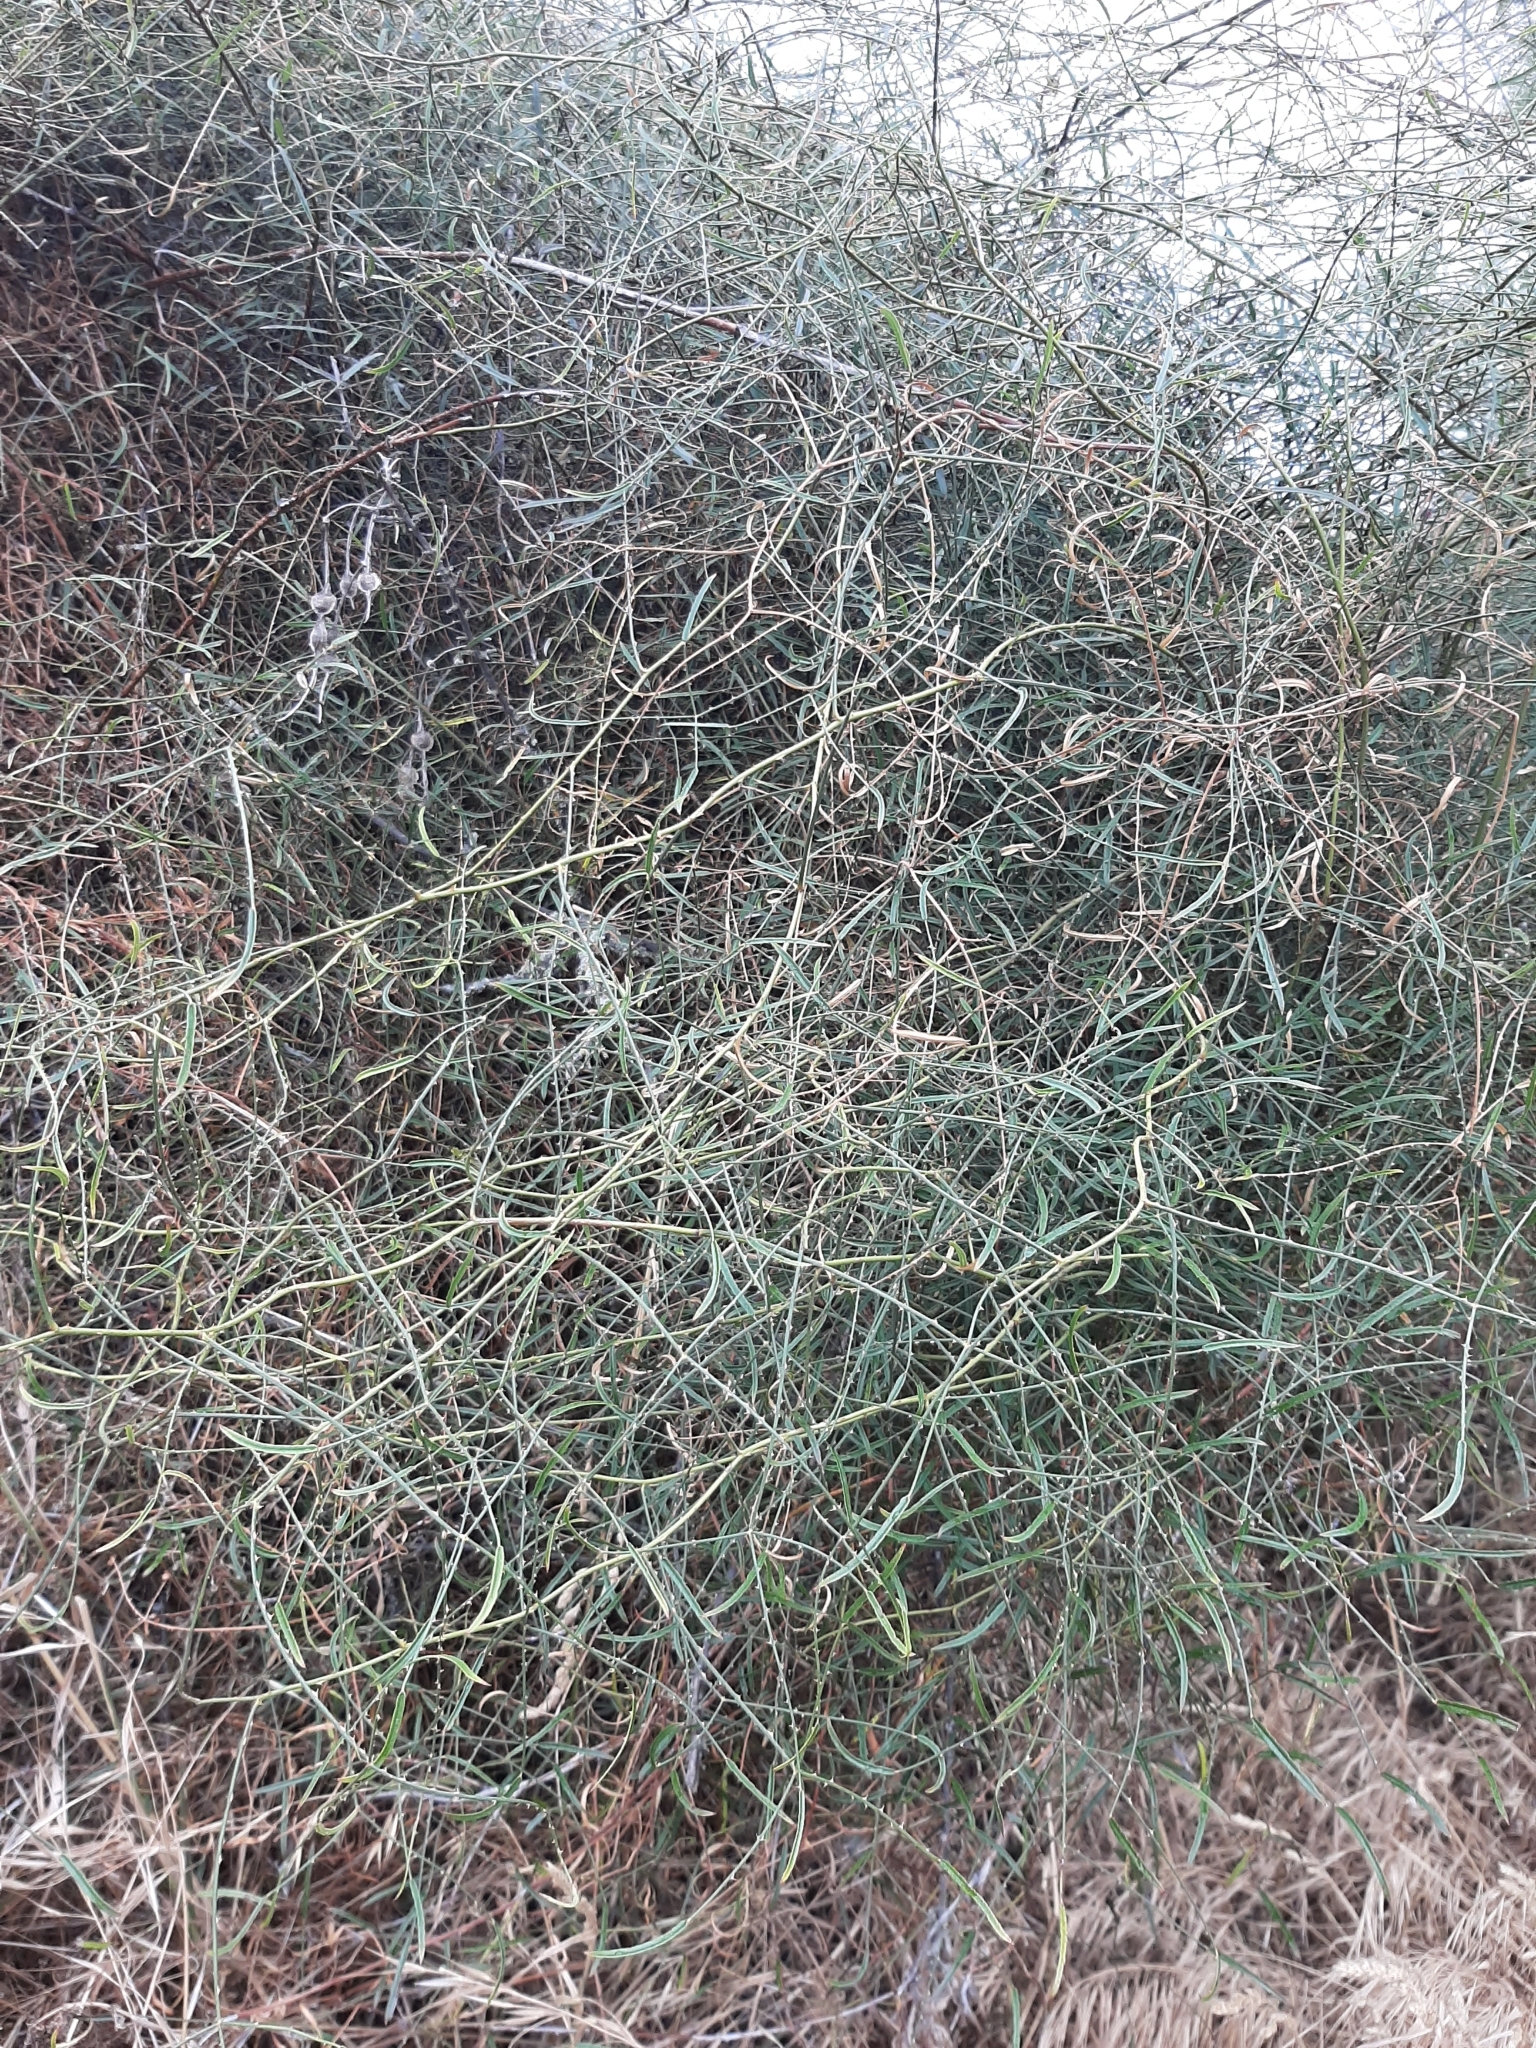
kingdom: Plantae
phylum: Tracheophyta
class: Magnoliopsida
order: Rosales
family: Rosaceae
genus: Rubus
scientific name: Rubus squarrosus
